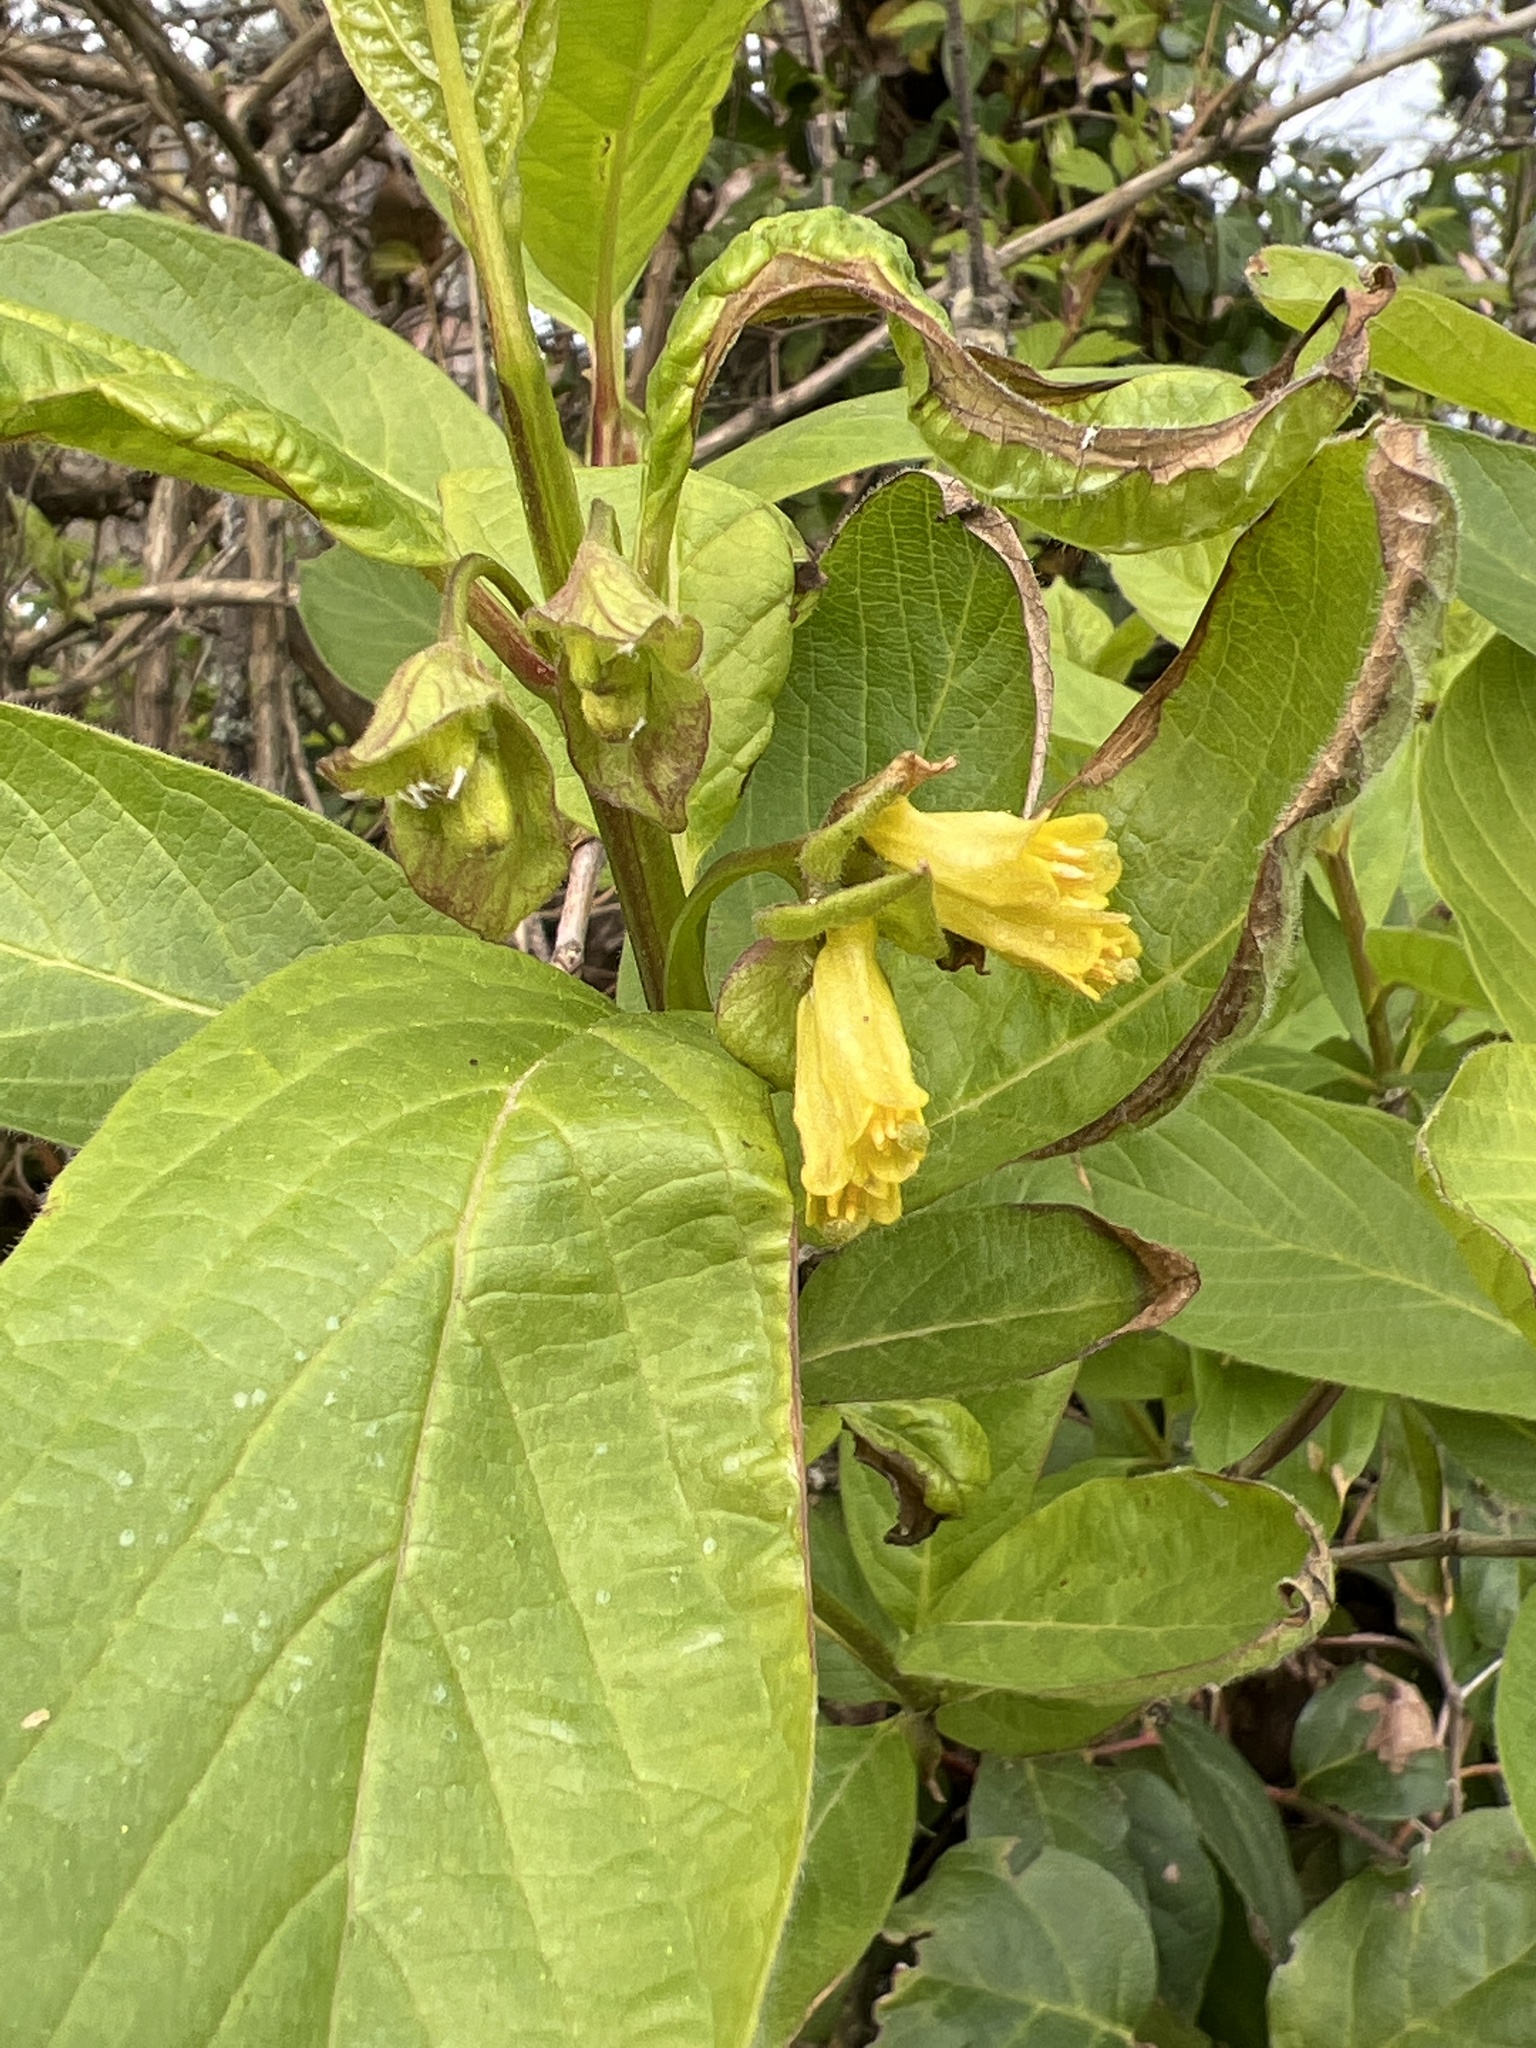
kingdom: Plantae
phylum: Tracheophyta
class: Magnoliopsida
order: Dipsacales
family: Caprifoliaceae
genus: Lonicera
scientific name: Lonicera involucrata
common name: Californian honeysuckle
